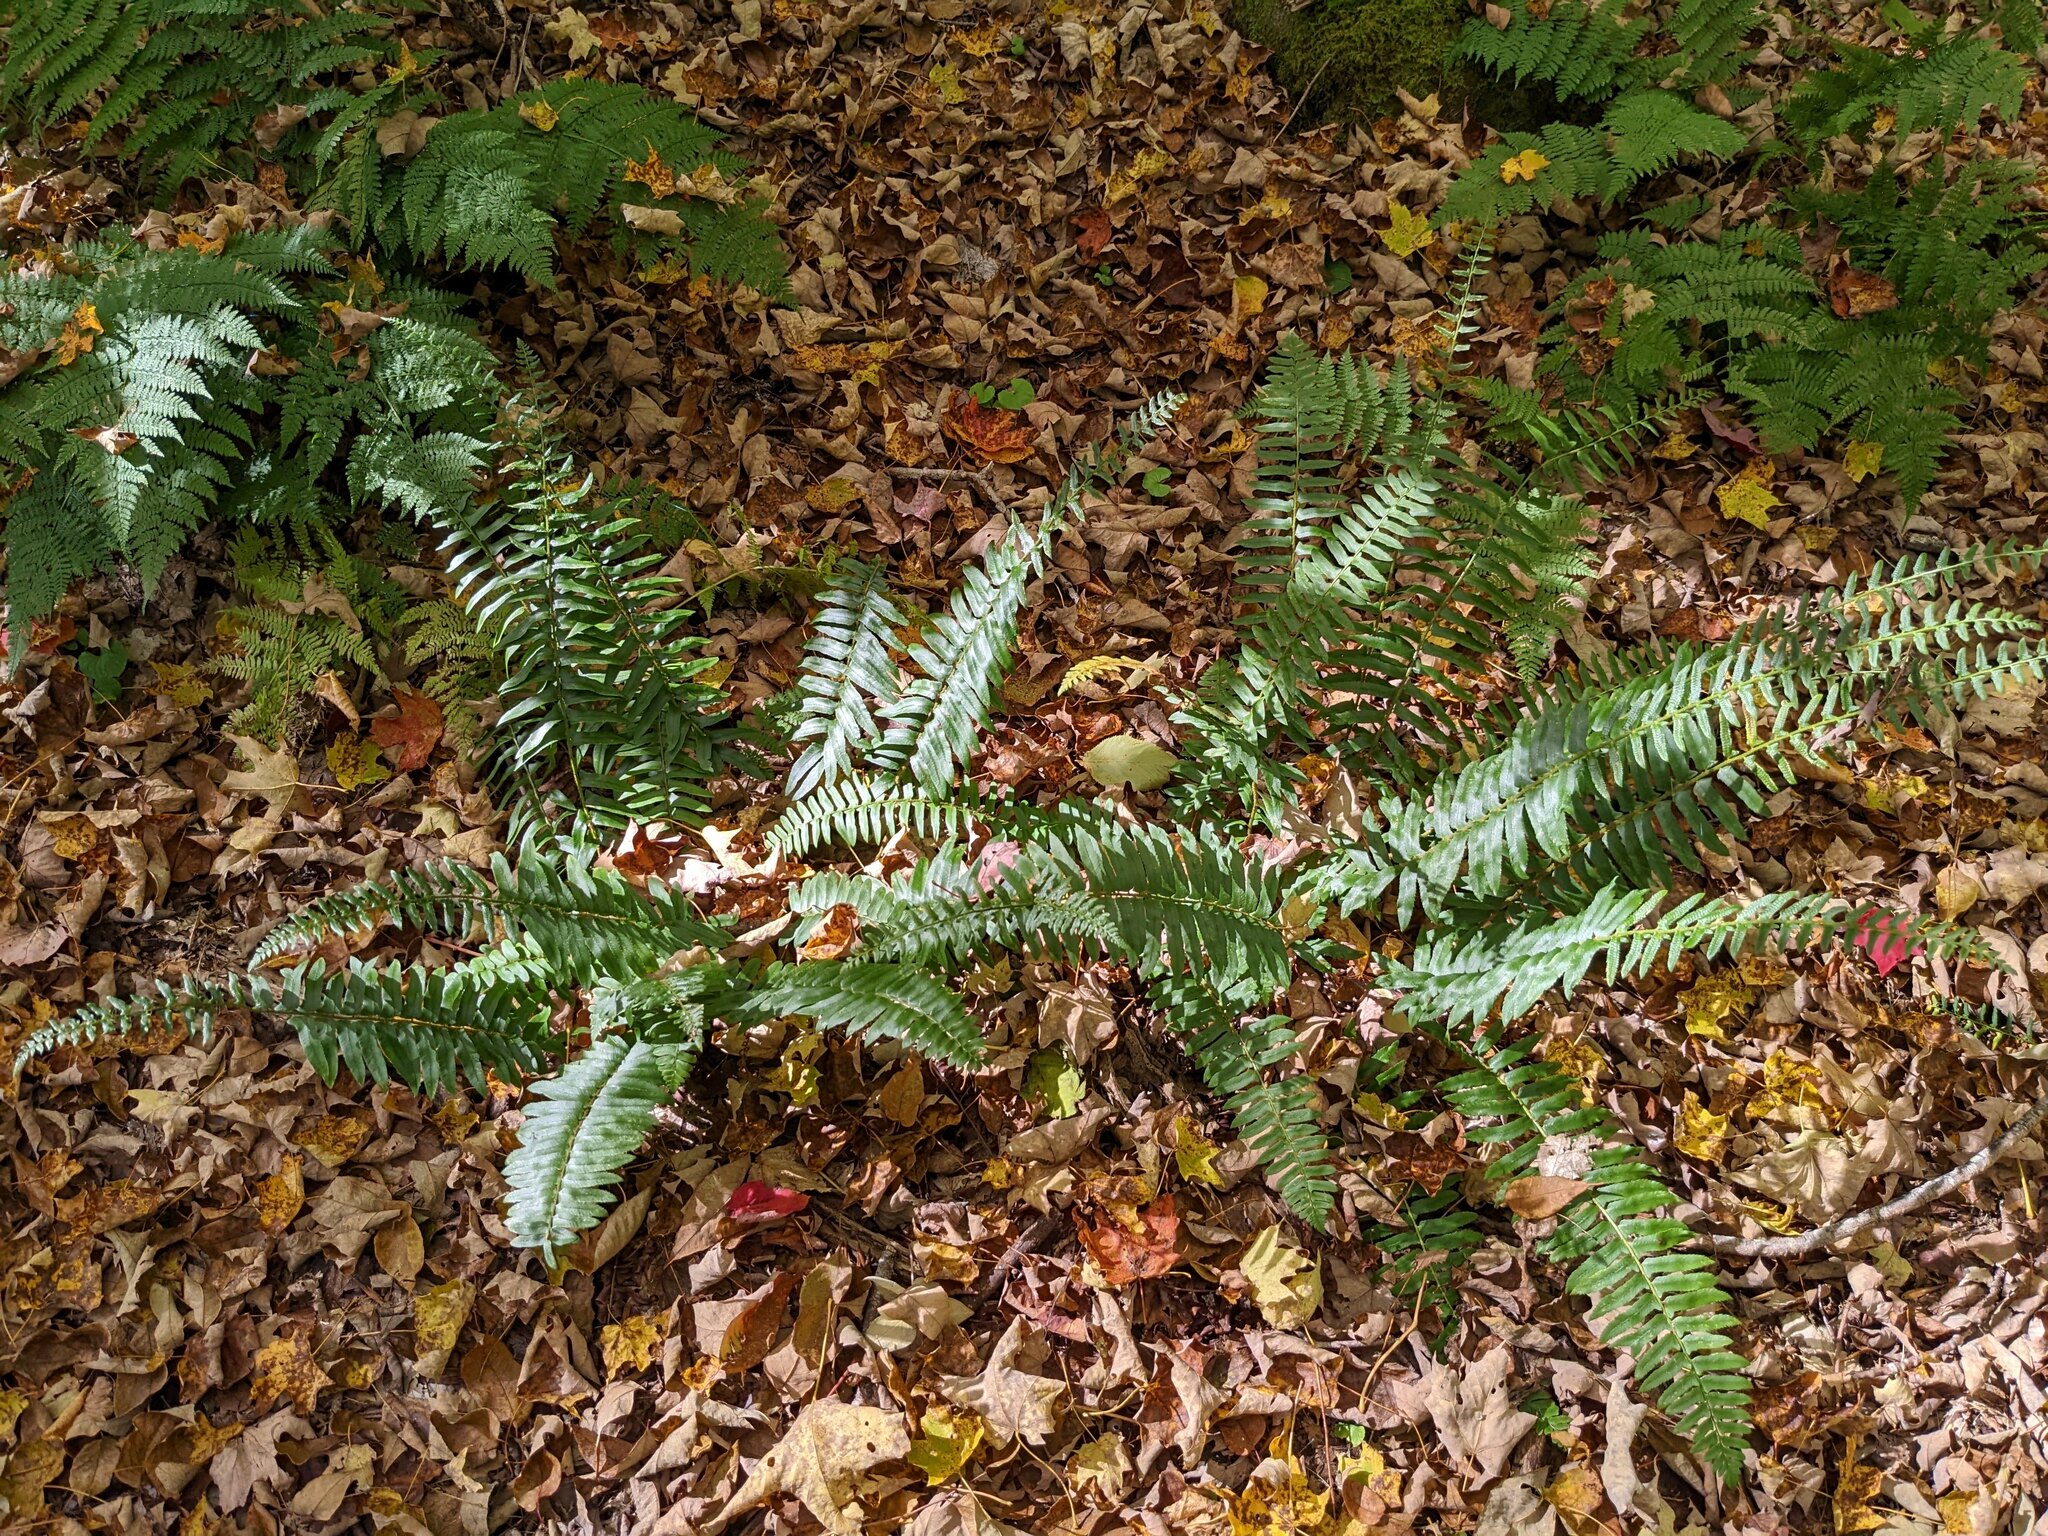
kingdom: Plantae
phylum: Tracheophyta
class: Polypodiopsida
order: Polypodiales
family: Dryopteridaceae
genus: Polystichum
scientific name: Polystichum acrostichoides
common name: Christmas fern
